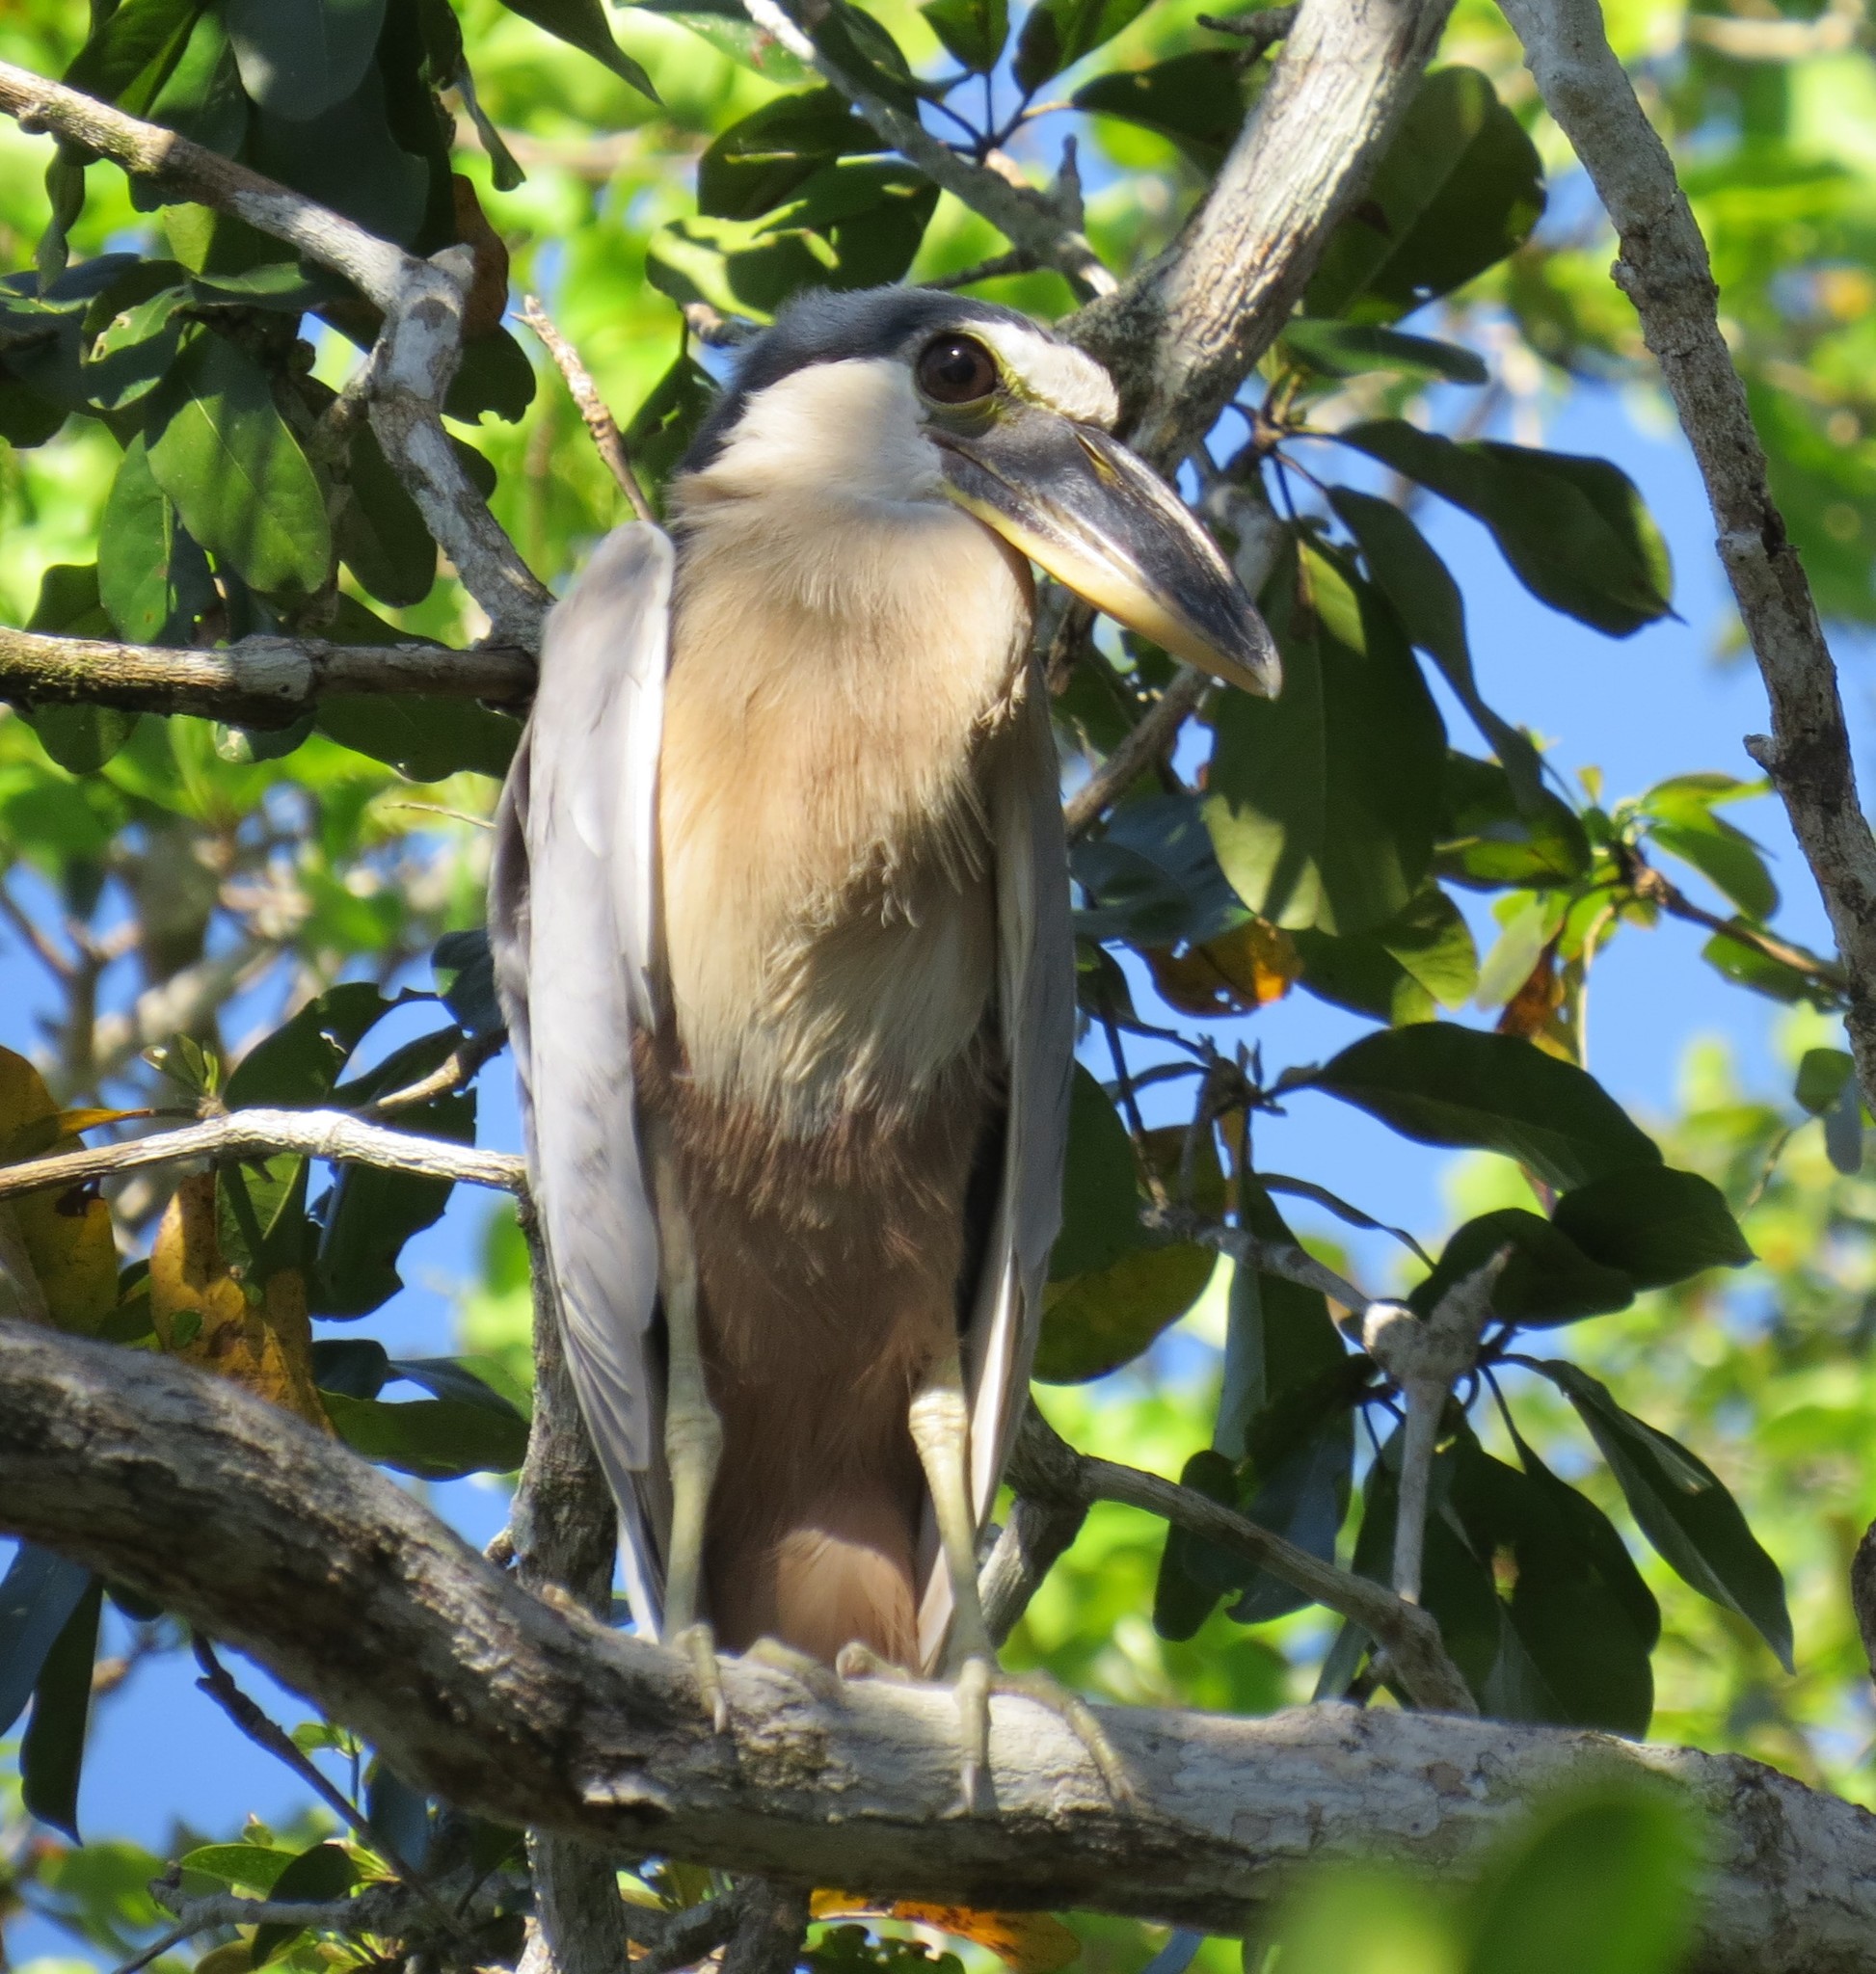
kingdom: Animalia
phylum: Chordata
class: Aves
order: Pelecaniformes
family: Ardeidae
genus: Cochlearius
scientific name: Cochlearius cochlearius
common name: Boat-billed heron
